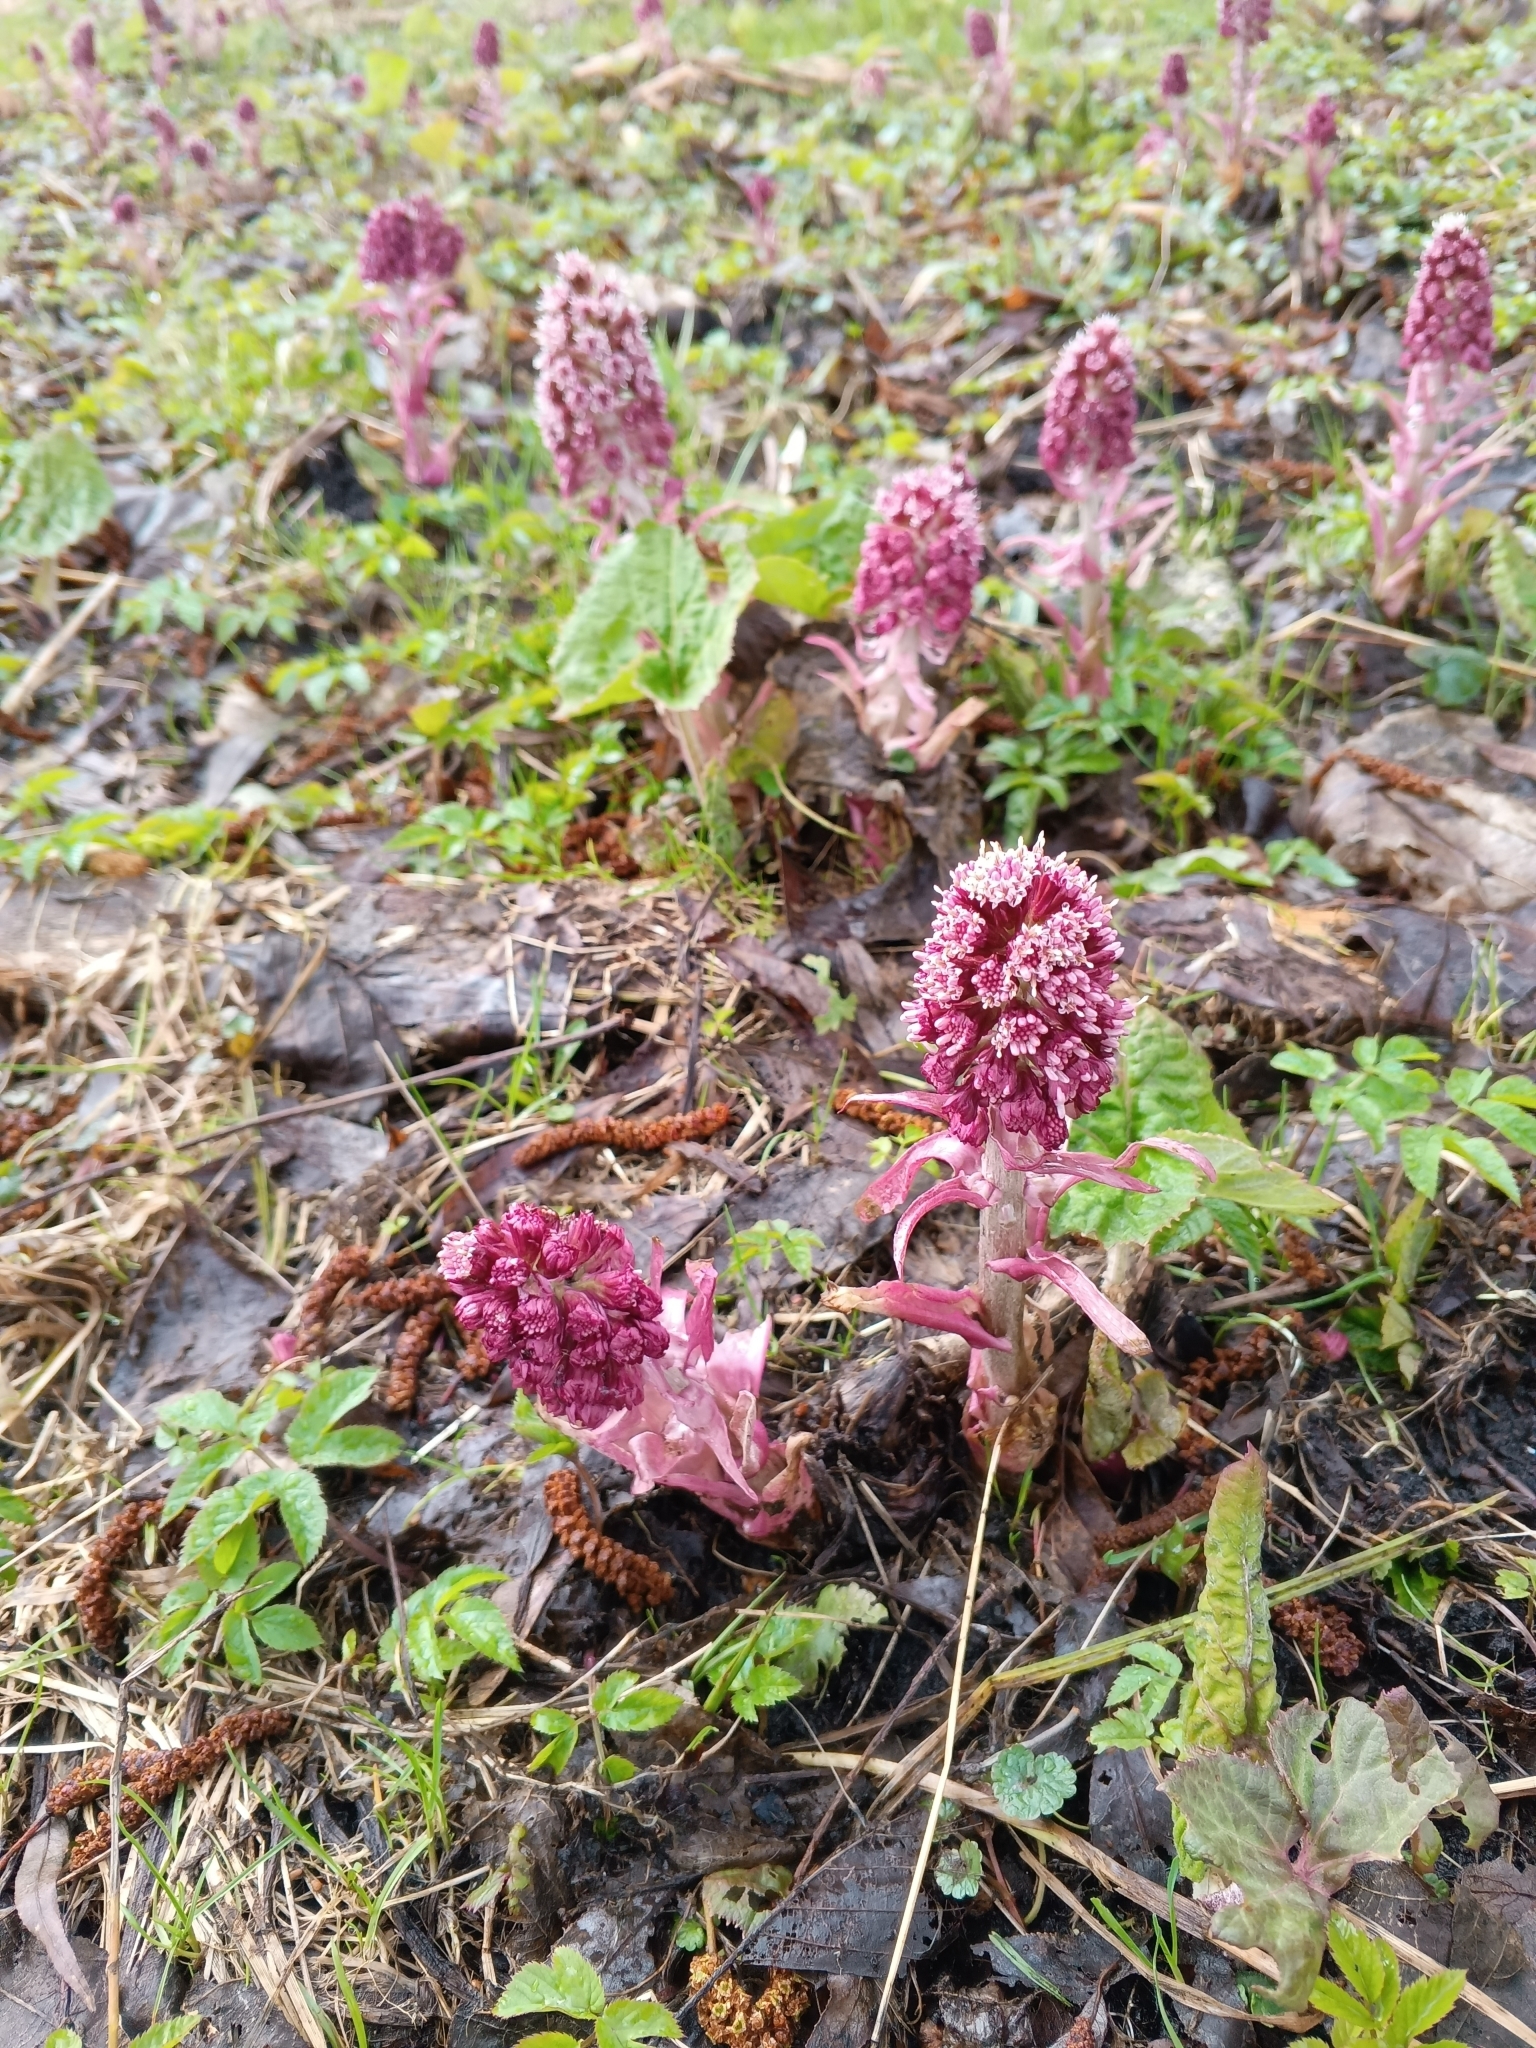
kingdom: Plantae
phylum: Tracheophyta
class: Magnoliopsida
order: Asterales
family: Asteraceae
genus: Petasites
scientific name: Petasites hybridus
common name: Butterbur
